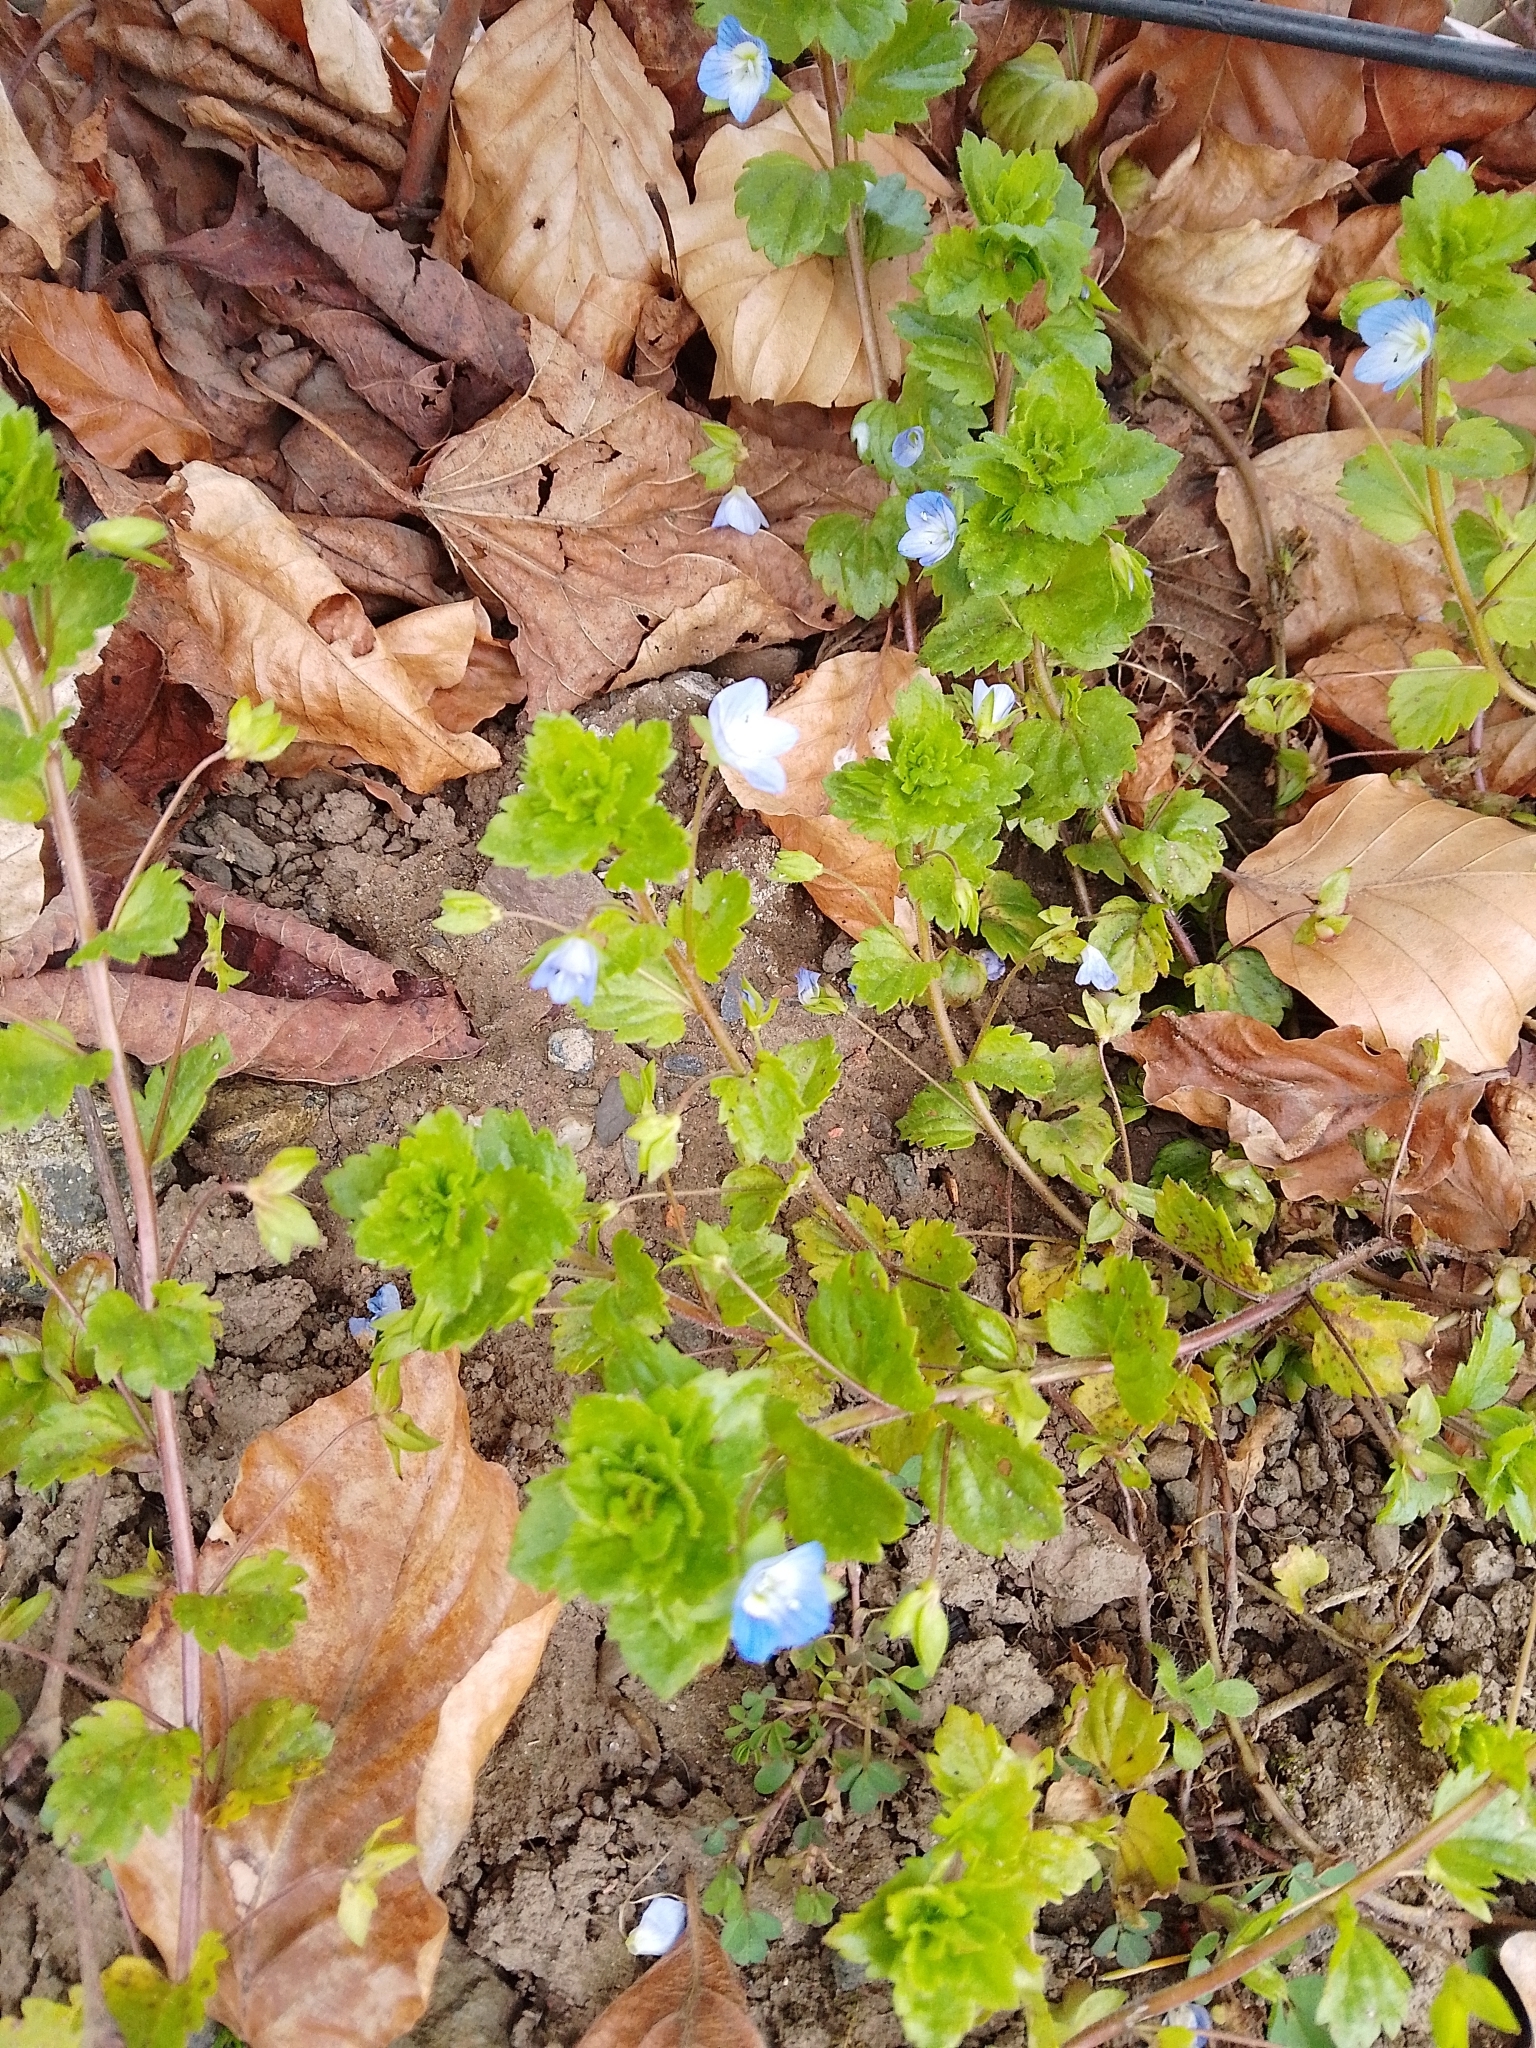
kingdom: Plantae
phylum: Tracheophyta
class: Magnoliopsida
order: Lamiales
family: Plantaginaceae
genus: Veronica
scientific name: Veronica persica
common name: Common field-speedwell
